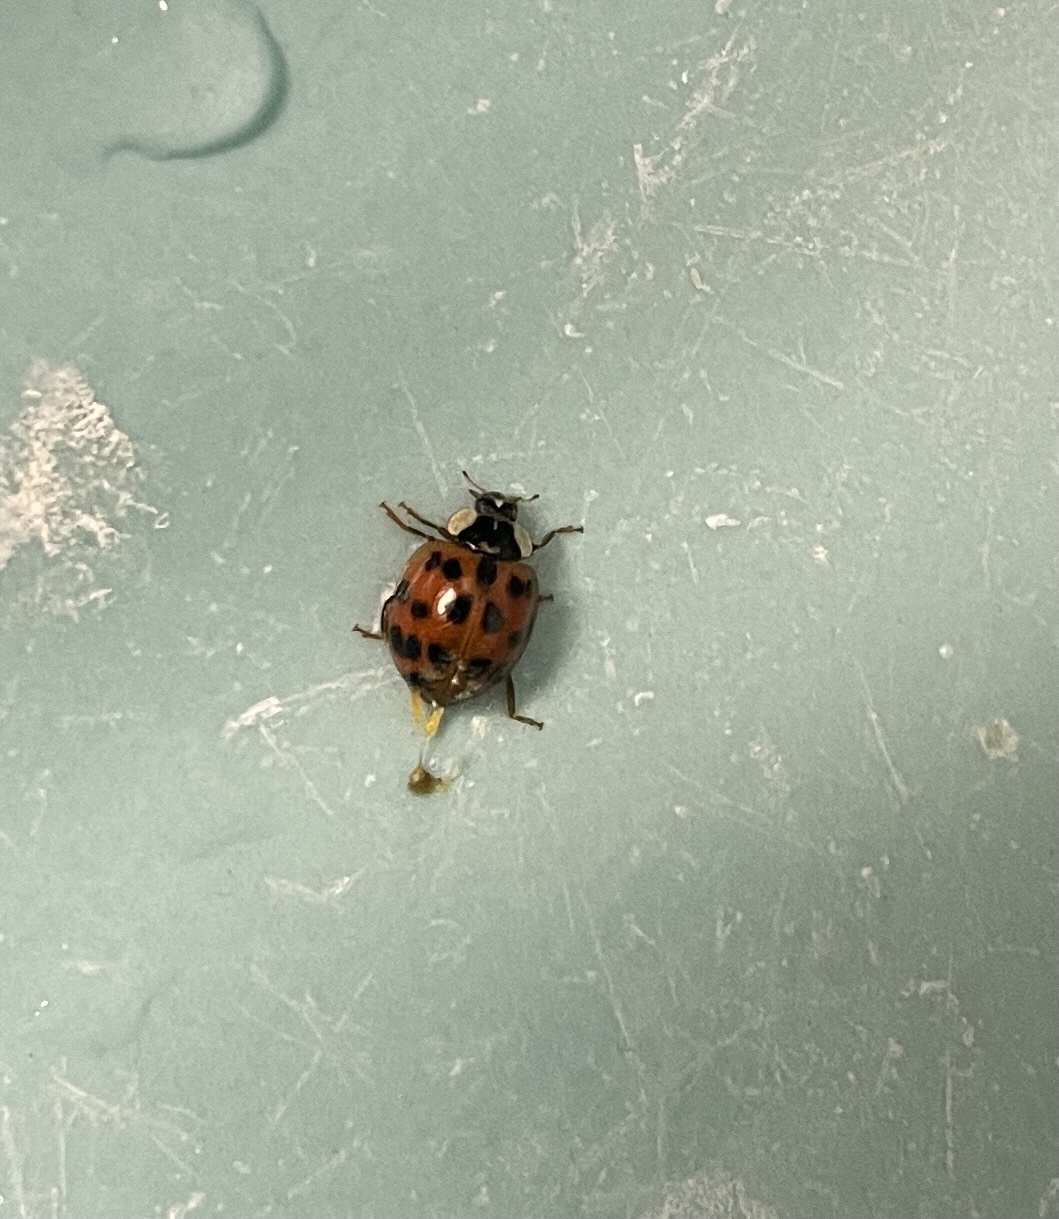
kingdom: Animalia
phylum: Arthropoda
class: Insecta
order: Coleoptera
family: Coccinellidae
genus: Harmonia
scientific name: Harmonia axyridis
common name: Harlequin ladybird
